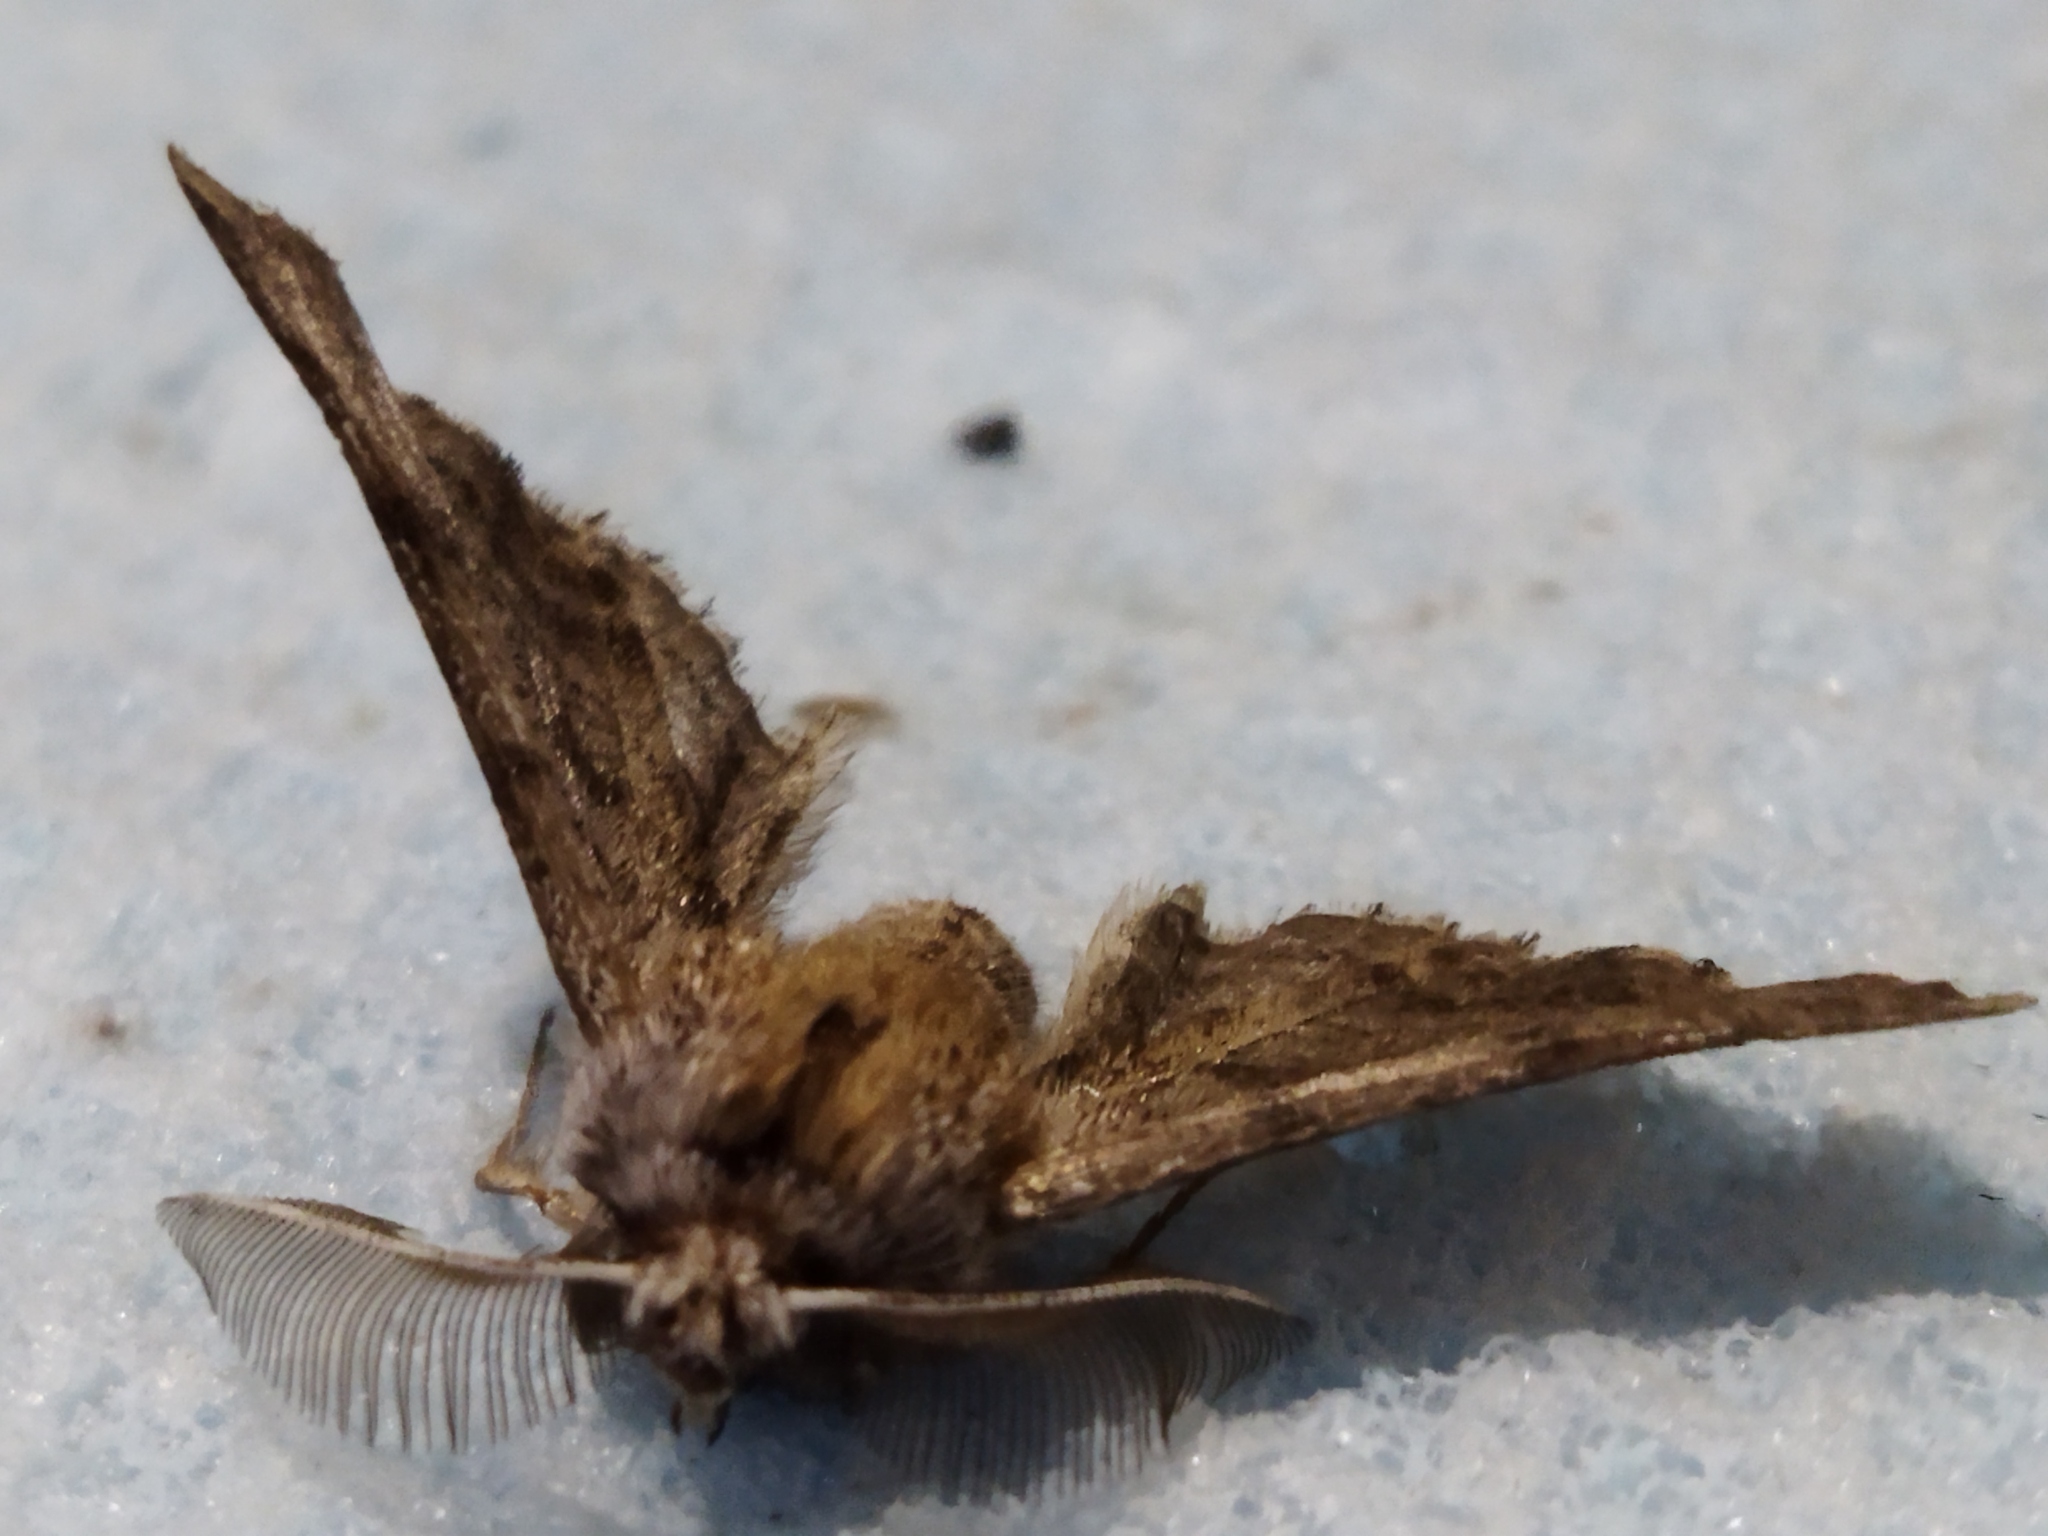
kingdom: Animalia
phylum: Arthropoda
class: Insecta
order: Lepidoptera
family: Geometridae
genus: Apochima
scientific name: Apochima flabellaria
